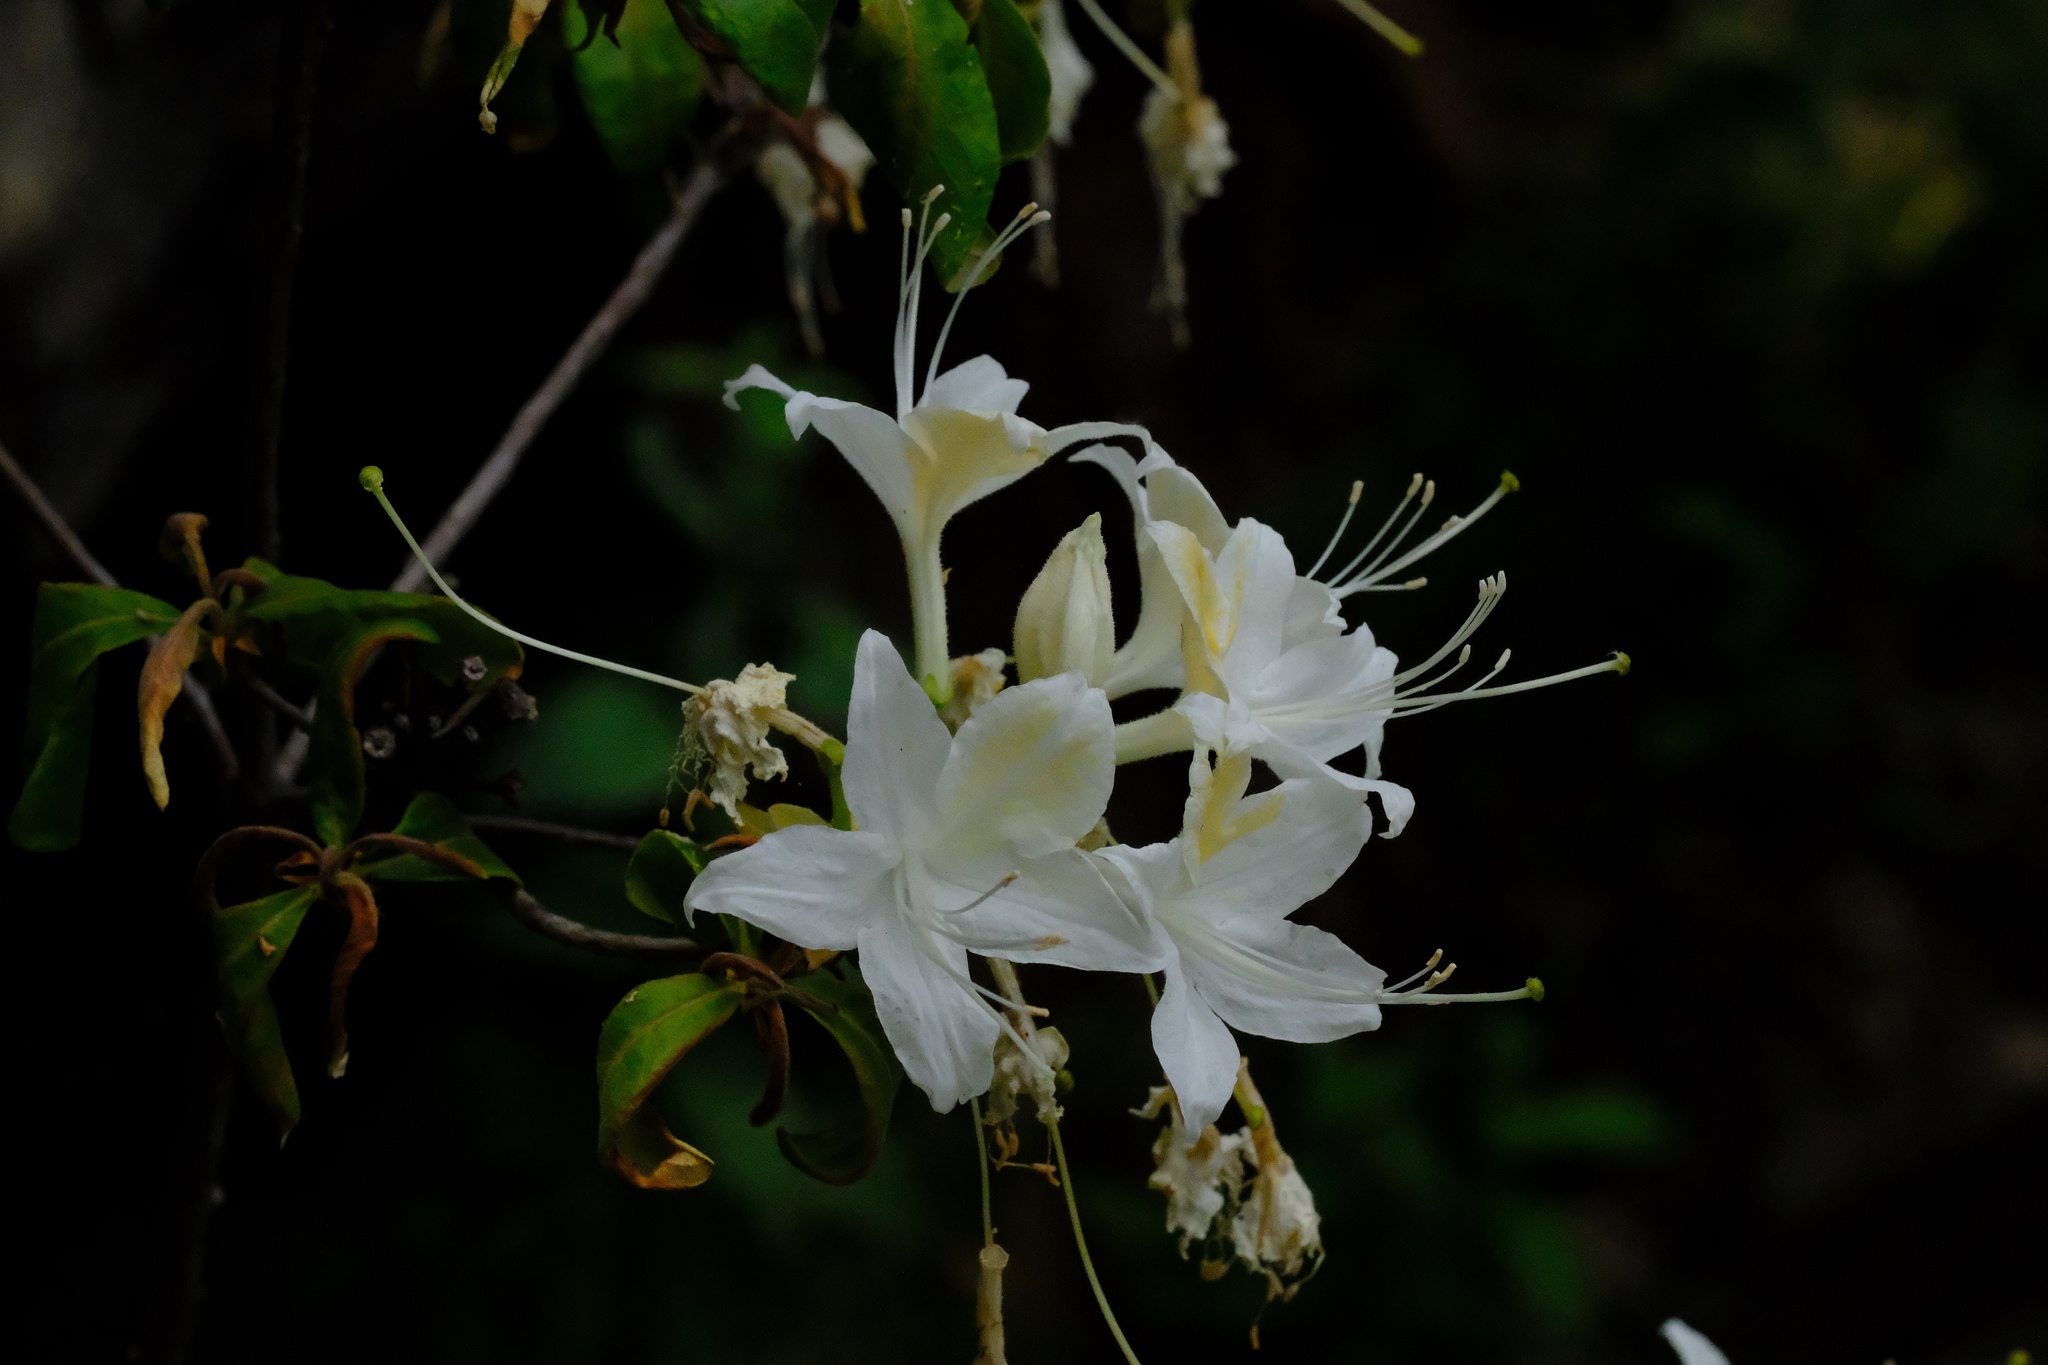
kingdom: Plantae
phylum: Tracheophyta
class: Magnoliopsida
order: Ericales
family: Ericaceae
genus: Rhododendron
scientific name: Rhododendron occidentale
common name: Western azalea
